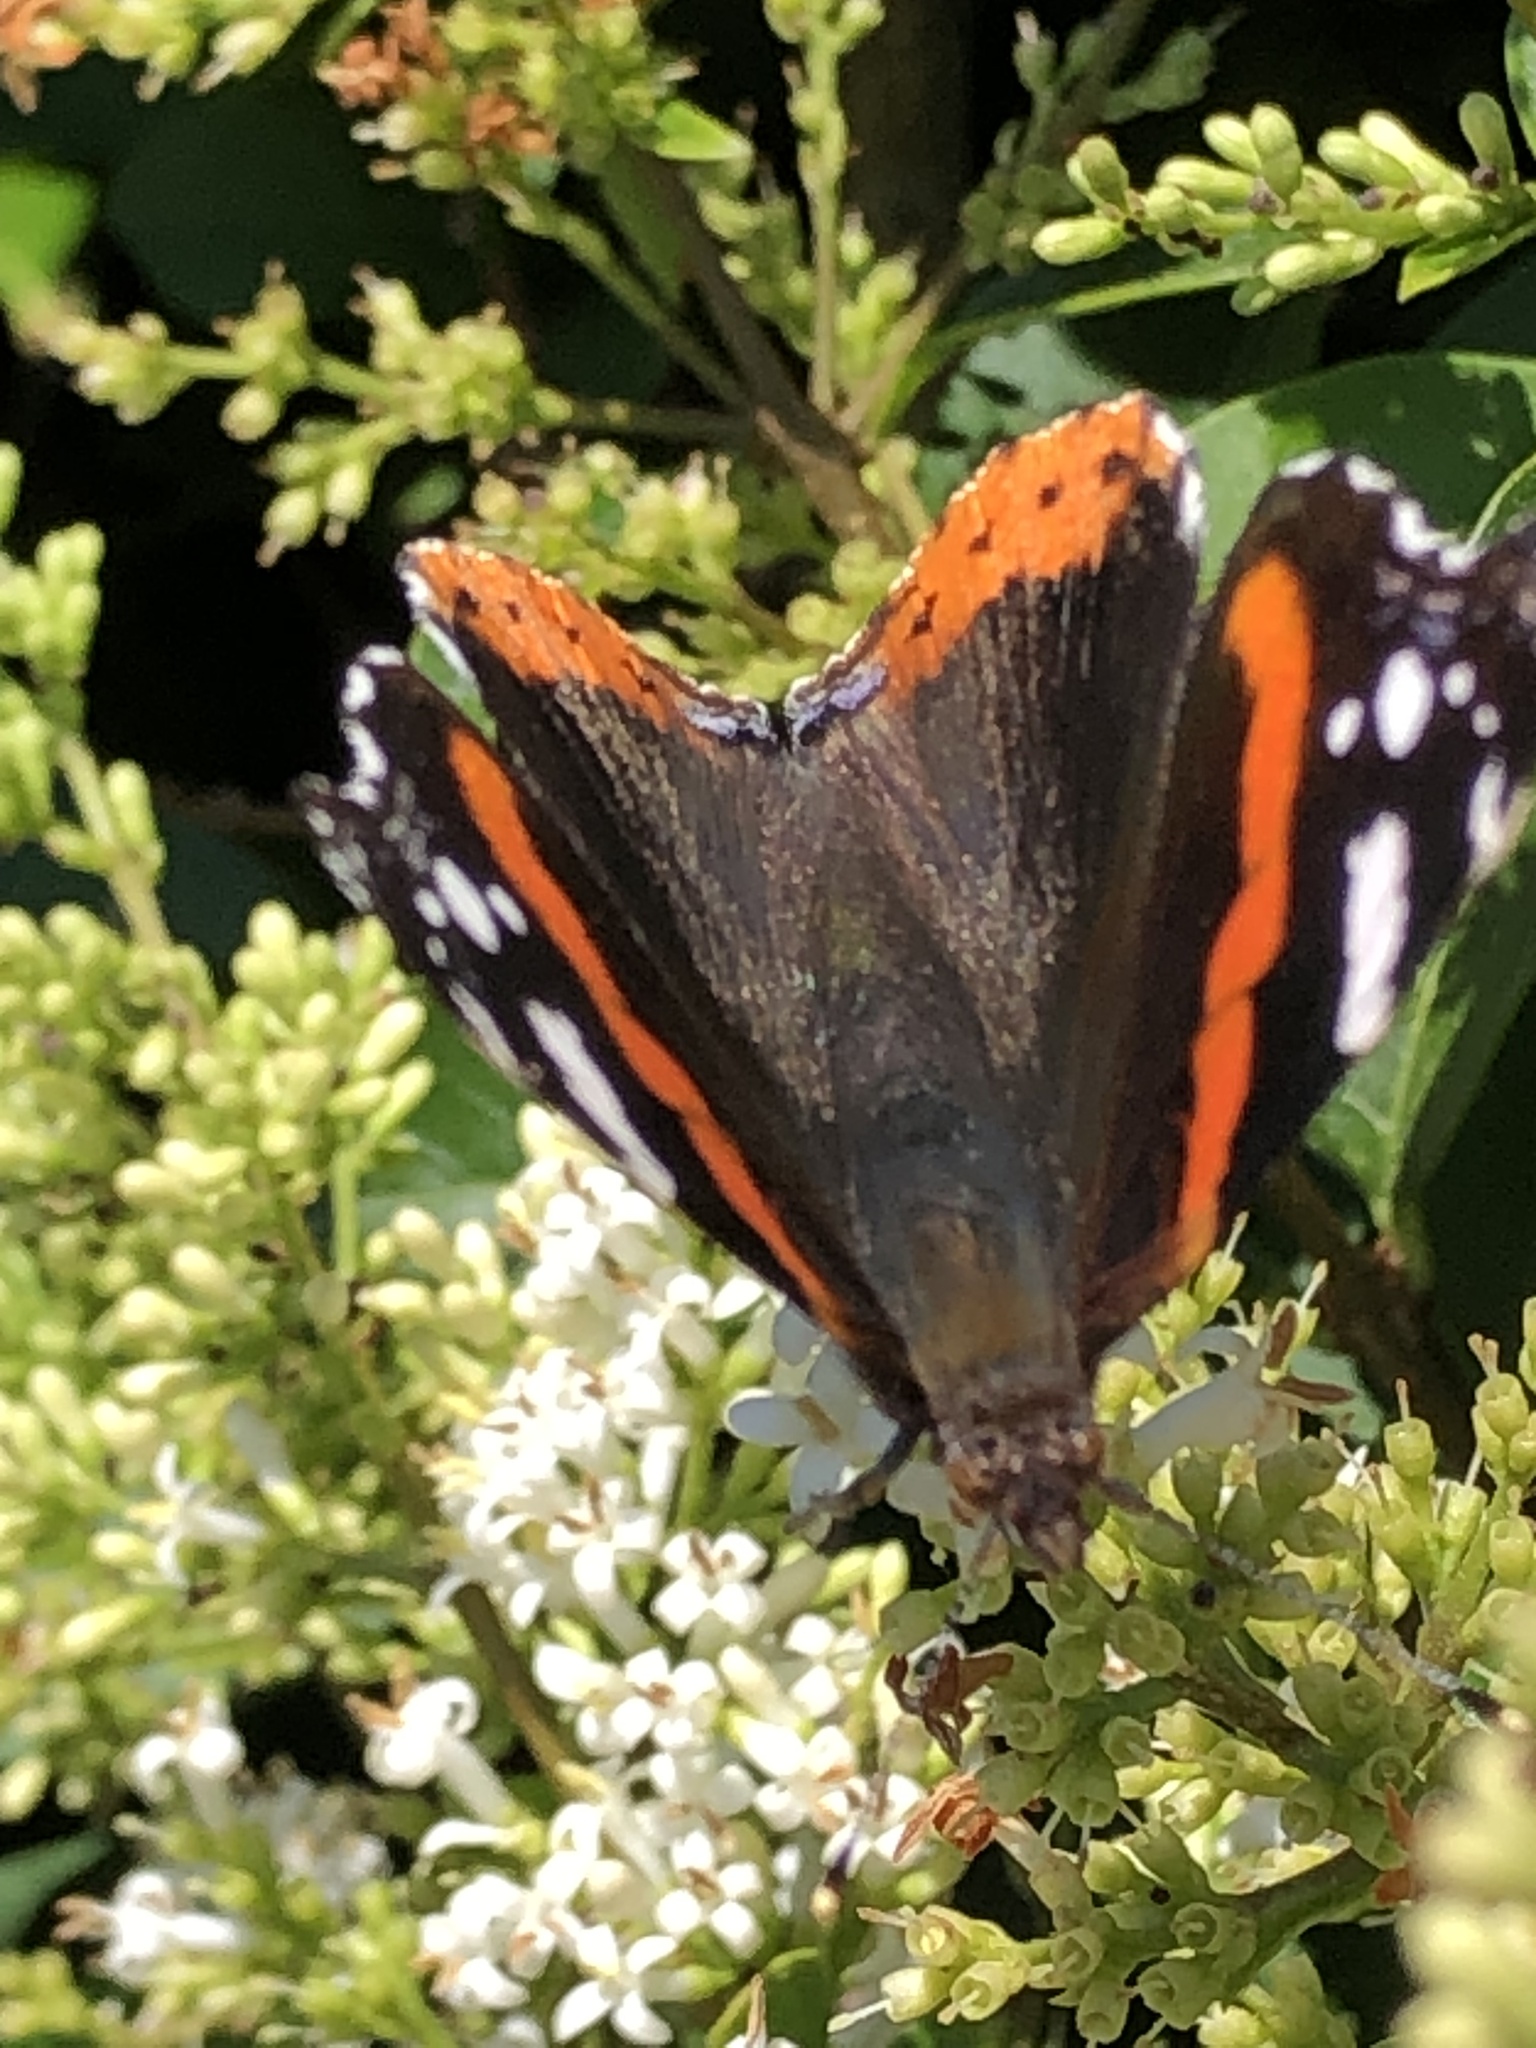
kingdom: Animalia
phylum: Arthropoda
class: Insecta
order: Lepidoptera
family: Nymphalidae
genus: Vanessa
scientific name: Vanessa atalanta
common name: Red admiral
